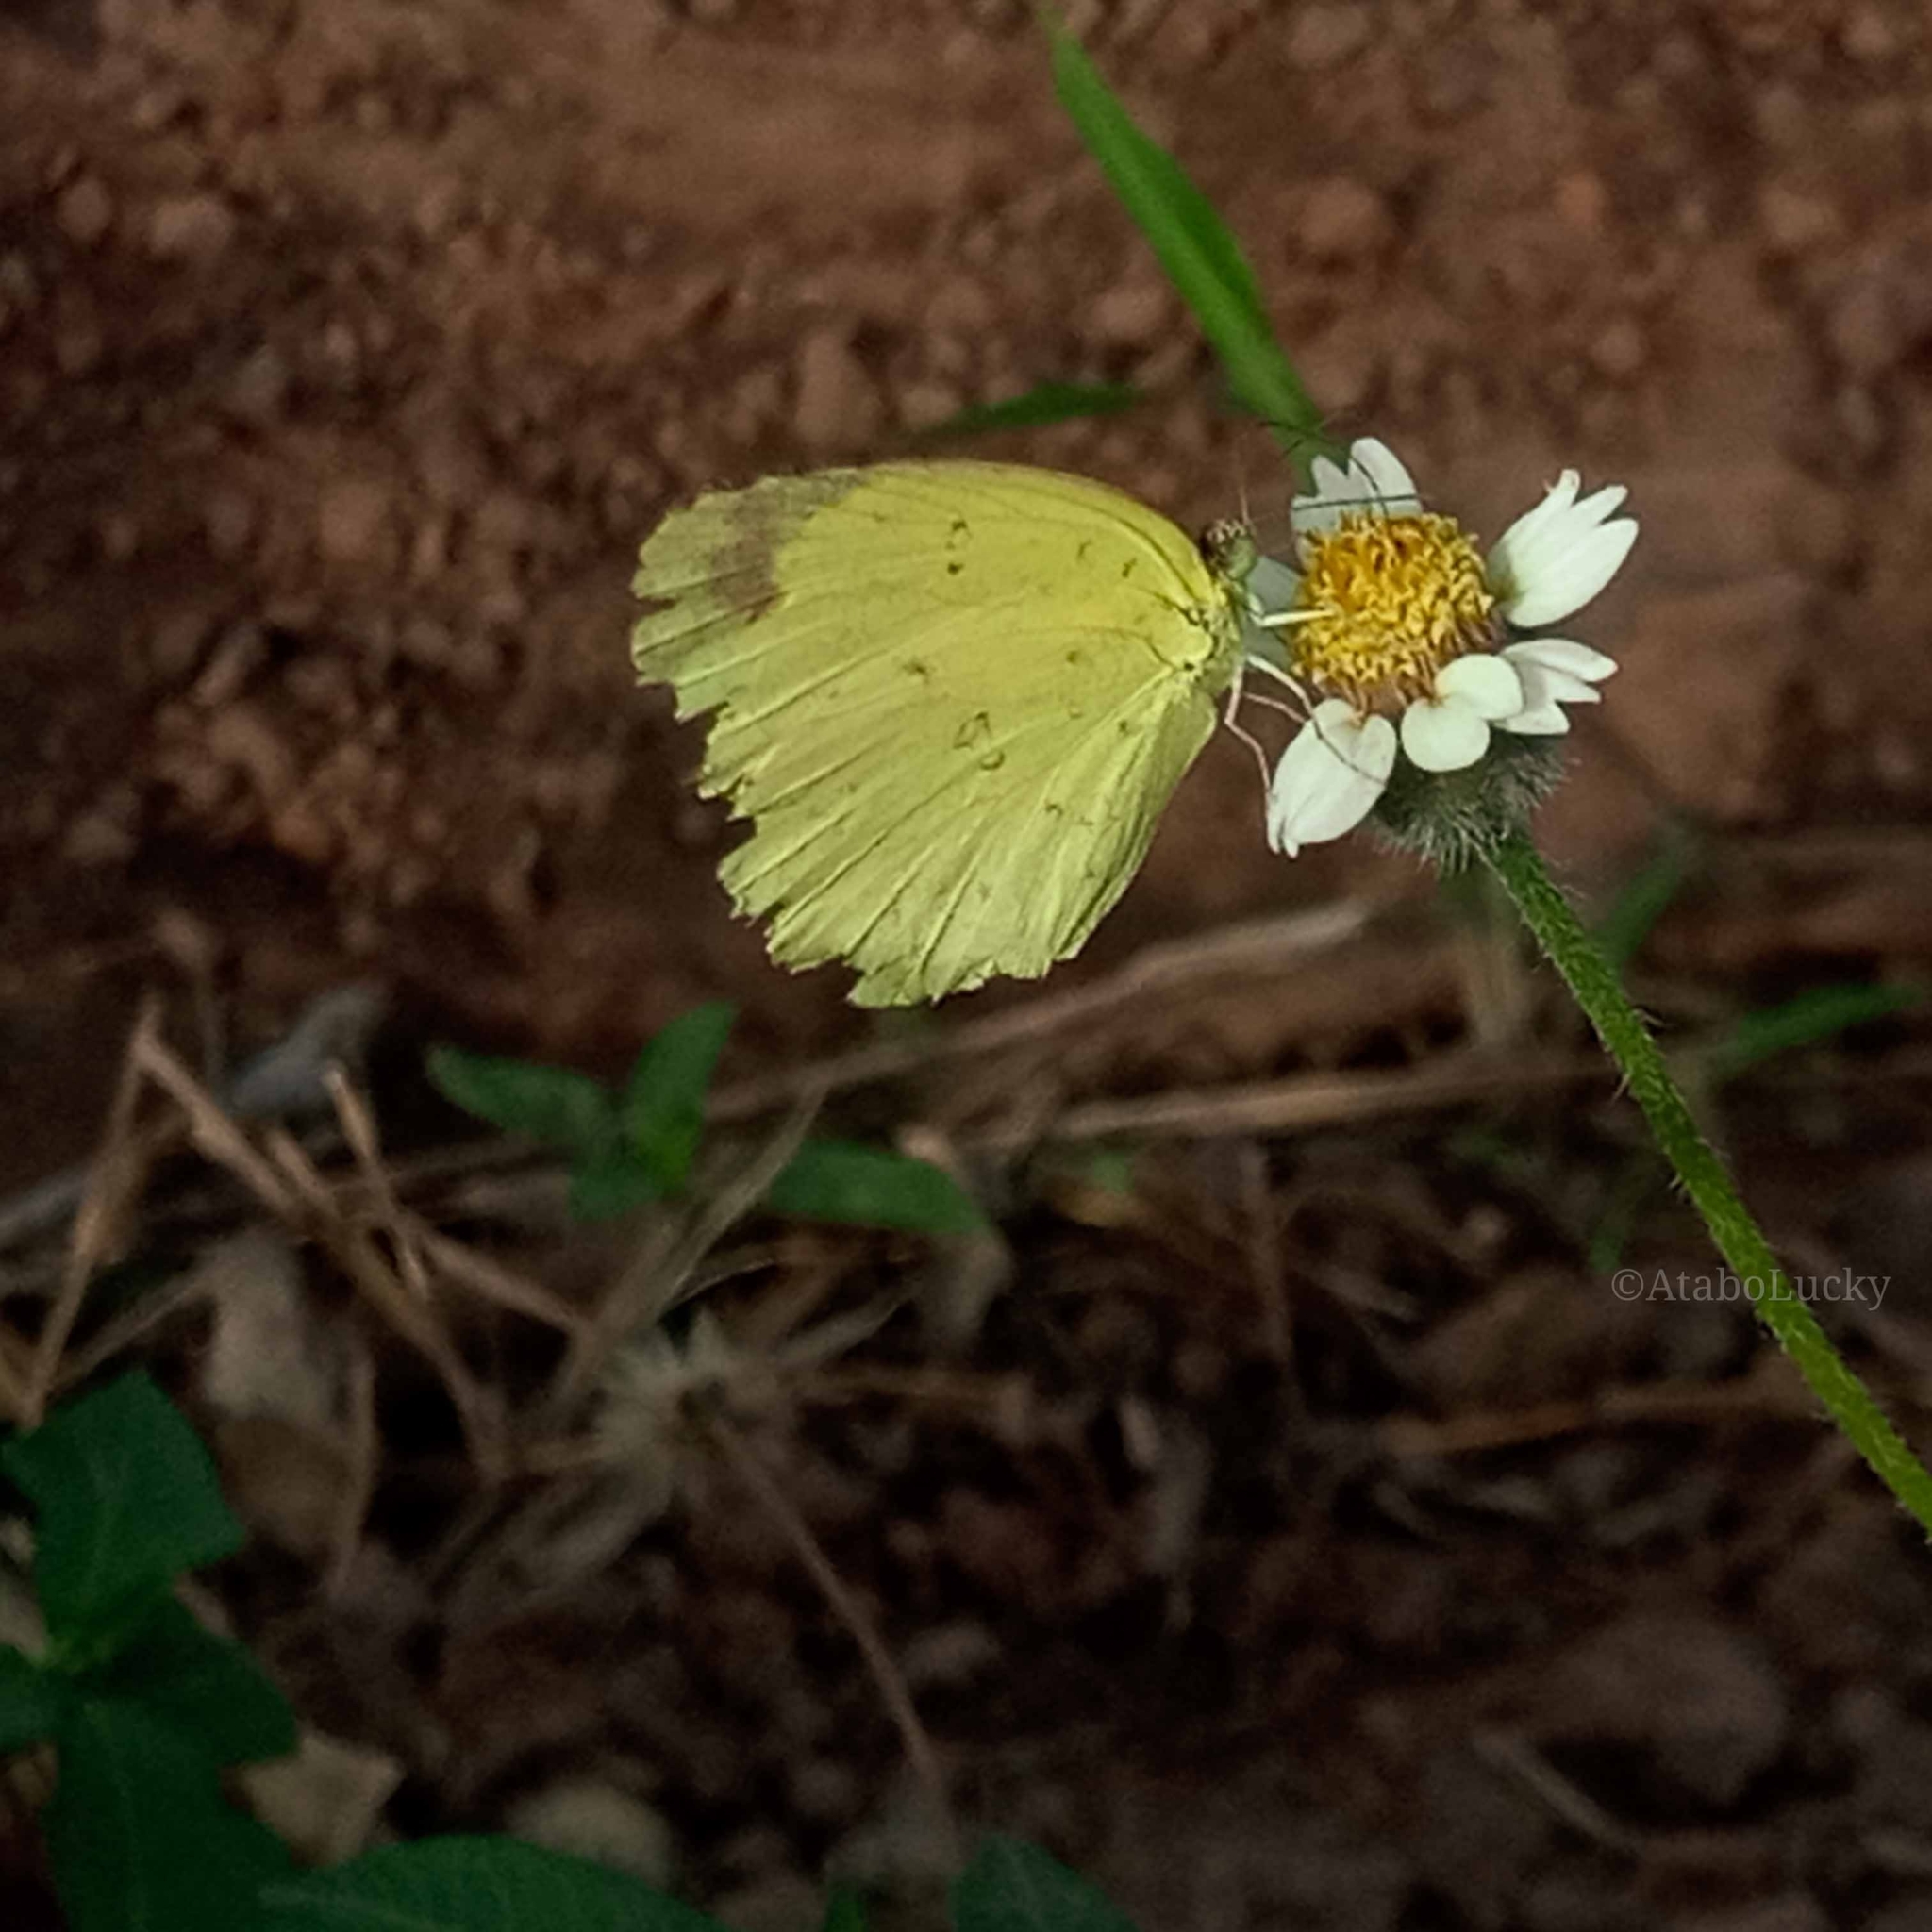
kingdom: Animalia
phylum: Arthropoda
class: Insecta
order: Lepidoptera
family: Pieridae
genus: Eurema
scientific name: Eurema hecabe
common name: Pale grass yellow
